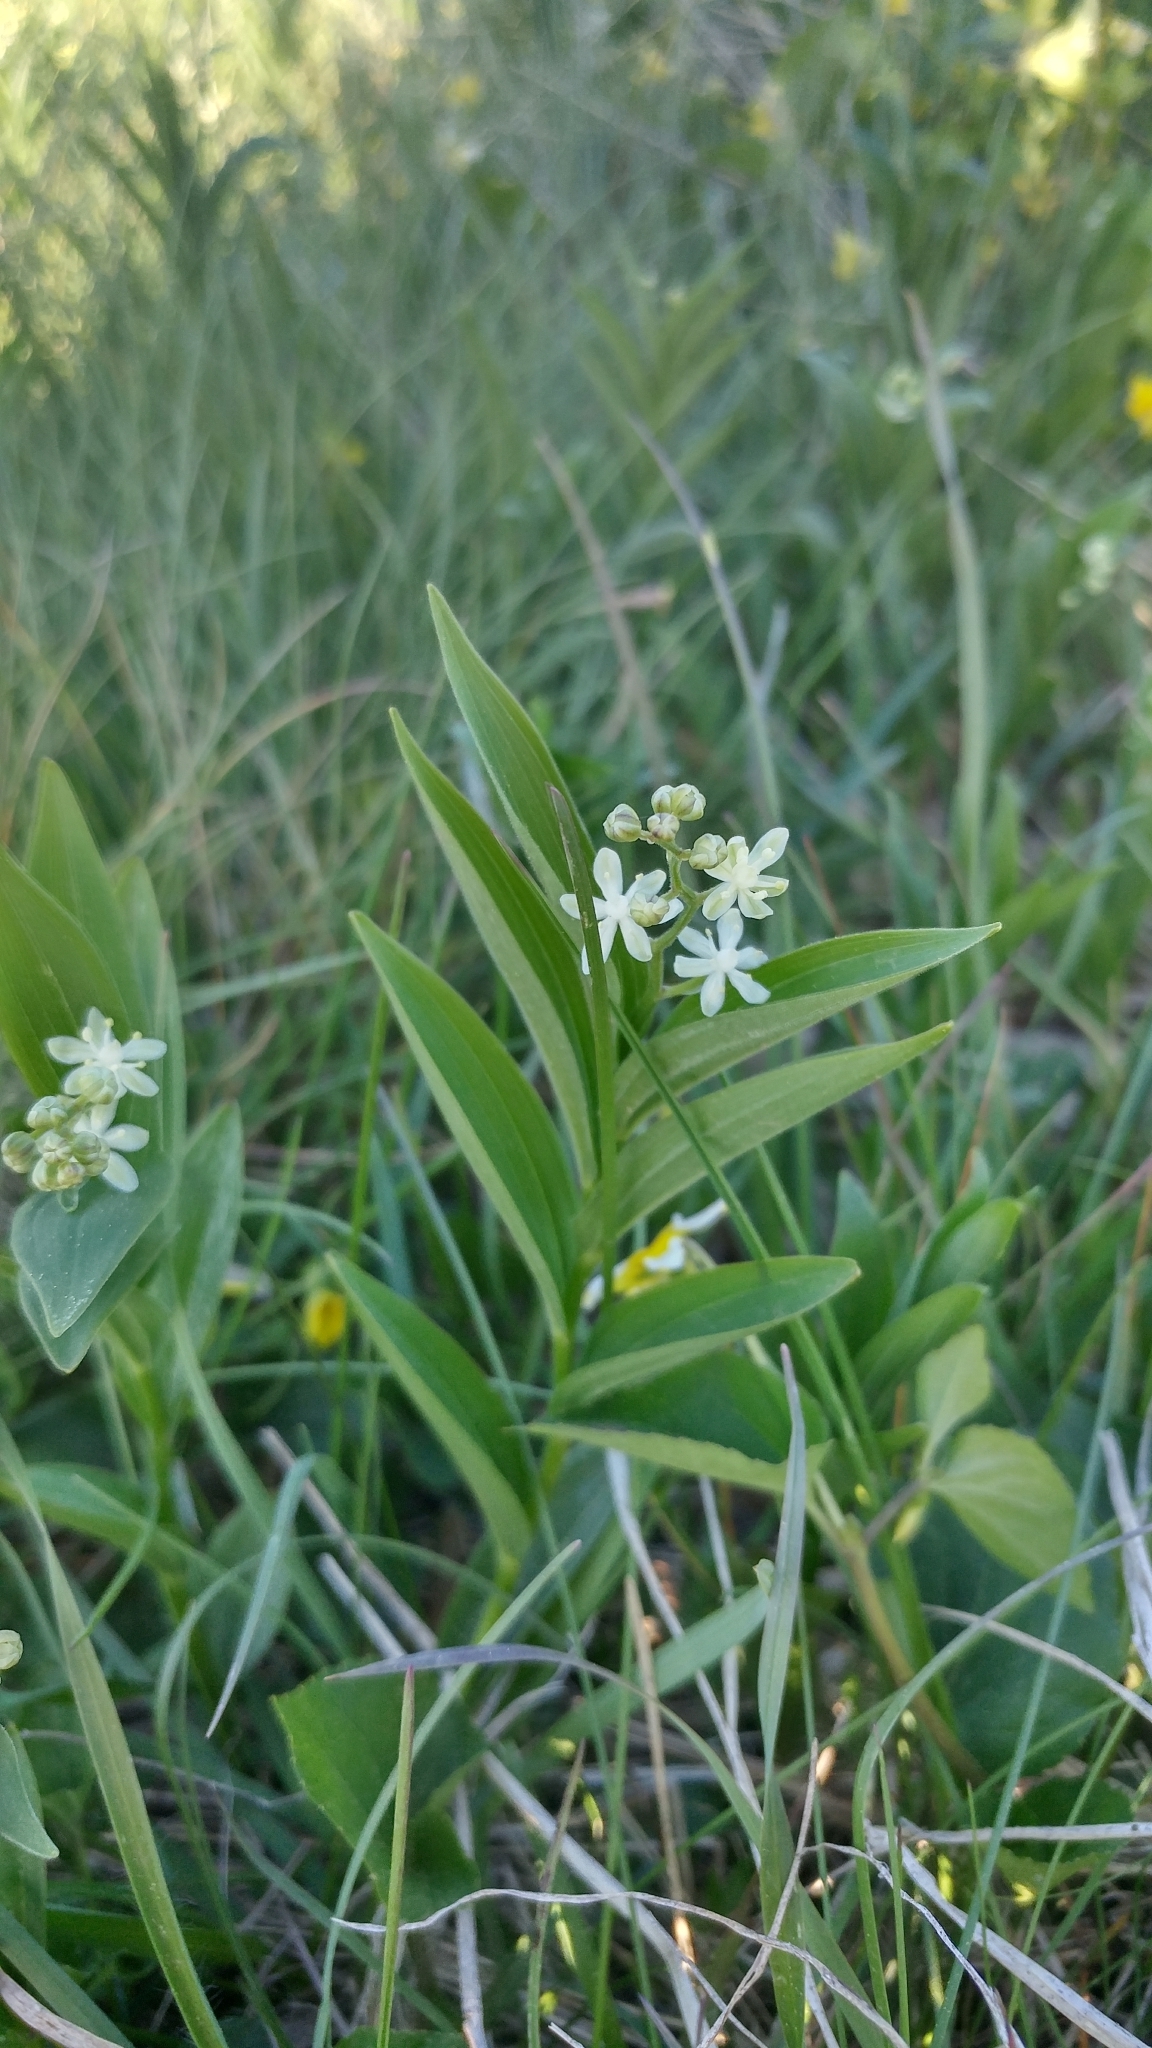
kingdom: Plantae
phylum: Tracheophyta
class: Liliopsida
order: Asparagales
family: Asparagaceae
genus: Maianthemum
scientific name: Maianthemum stellatum
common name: Little false solomon's seal
